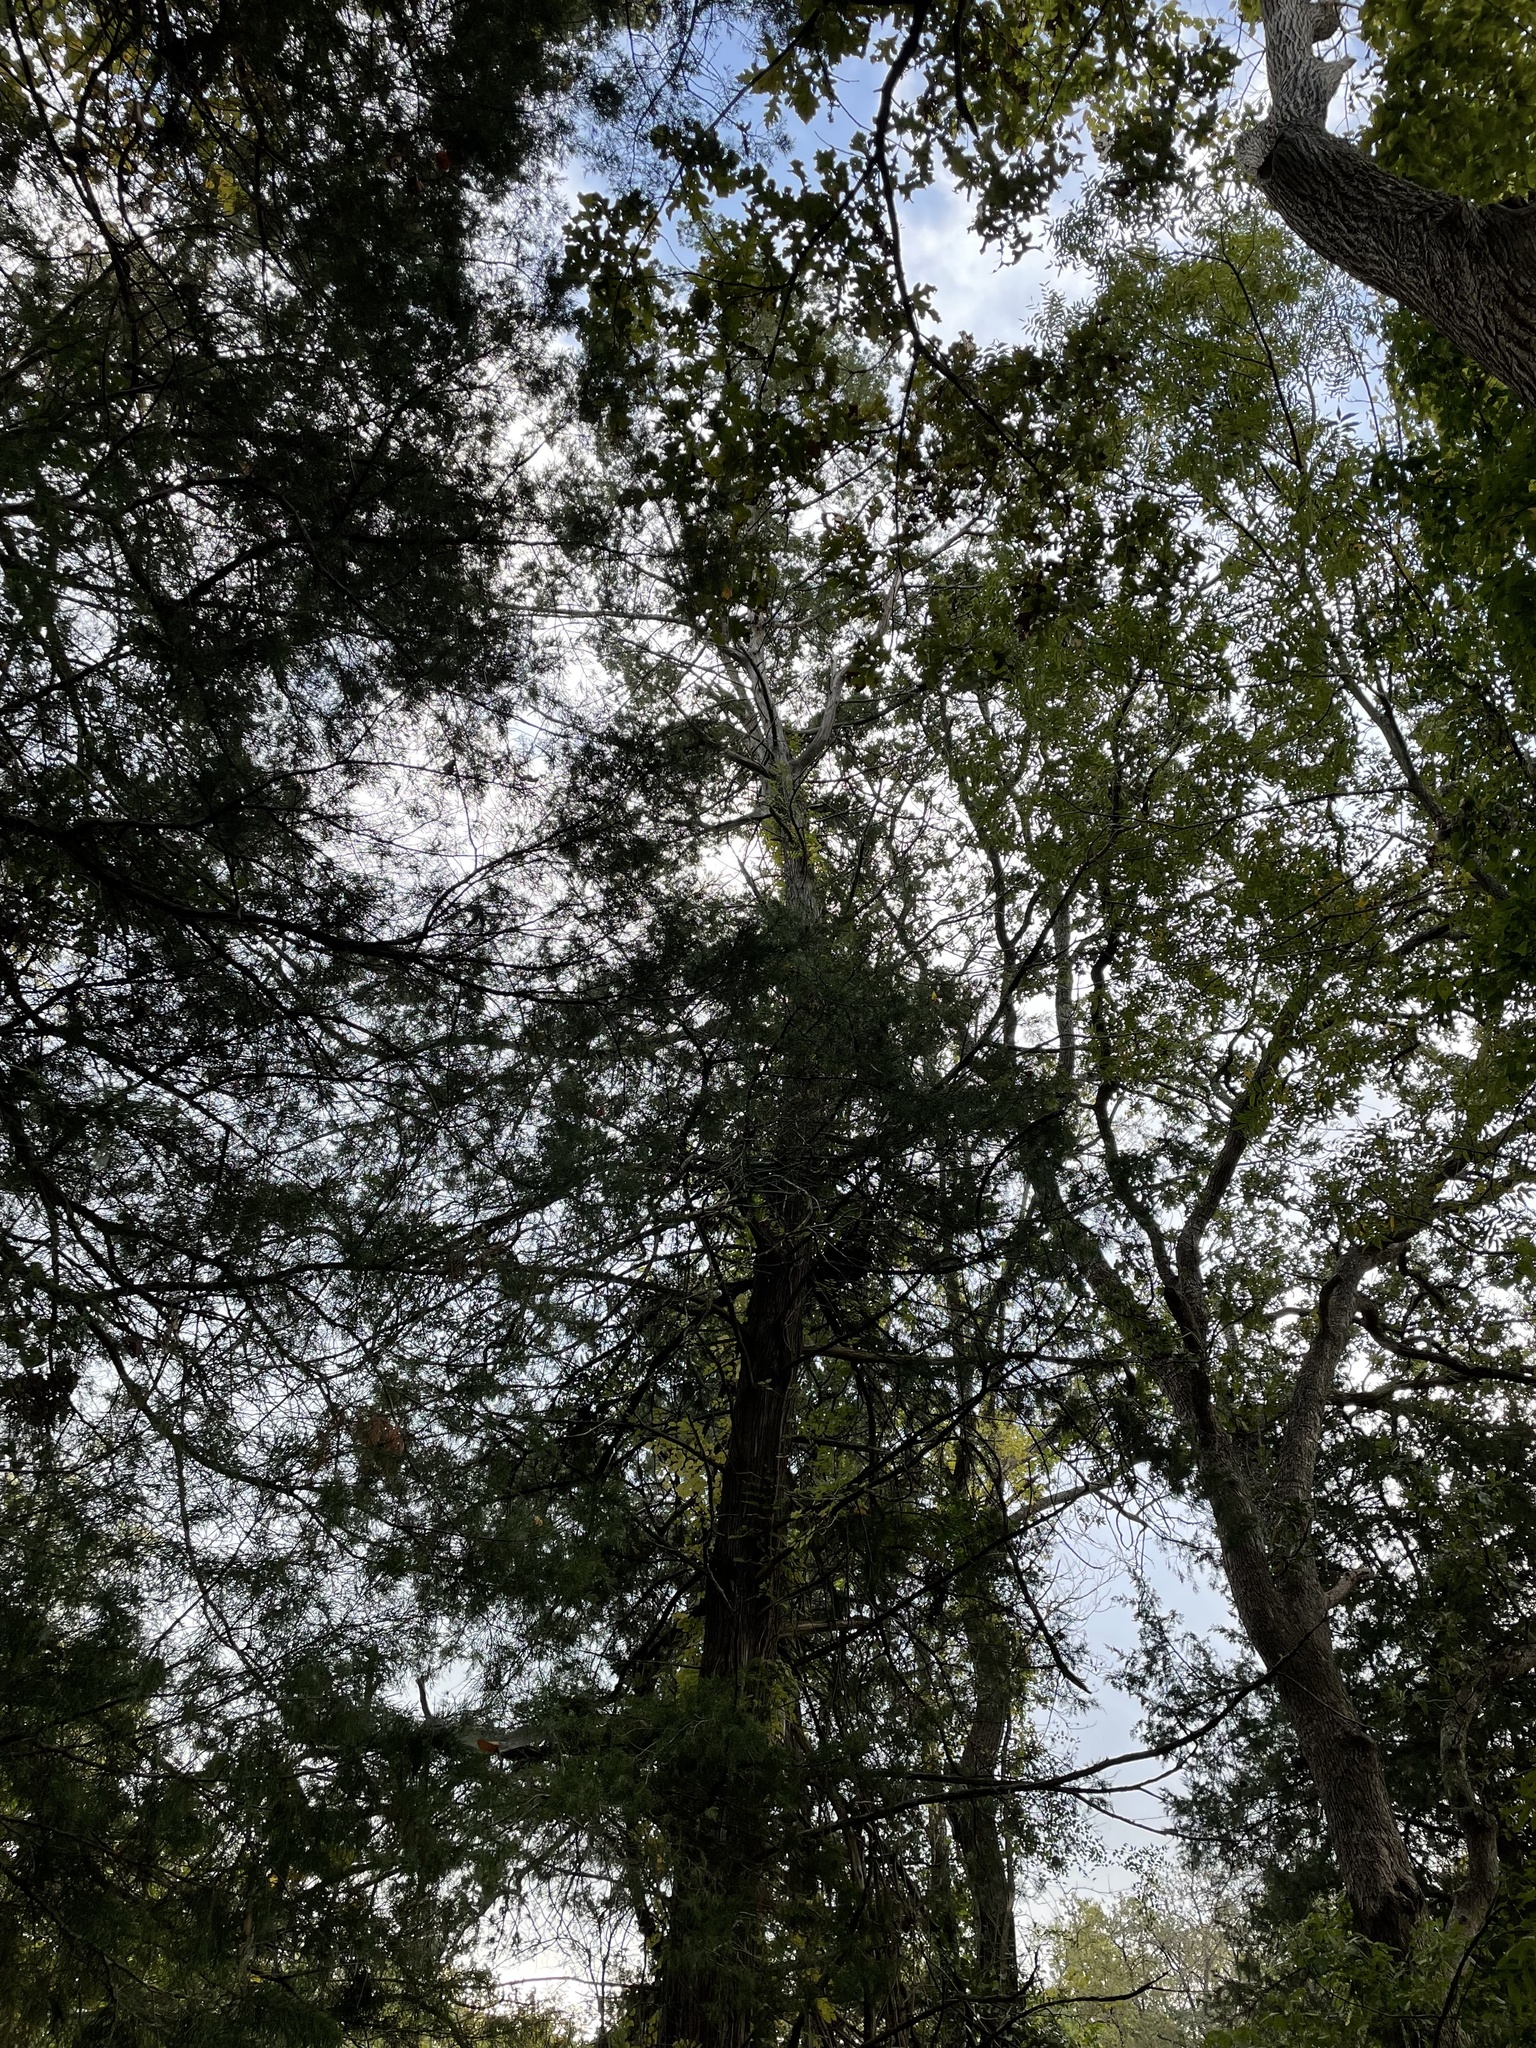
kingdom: Plantae
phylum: Tracheophyta
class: Pinopsida
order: Pinales
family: Cupressaceae
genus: Juniperus
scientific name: Juniperus virginiana
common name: Red juniper
